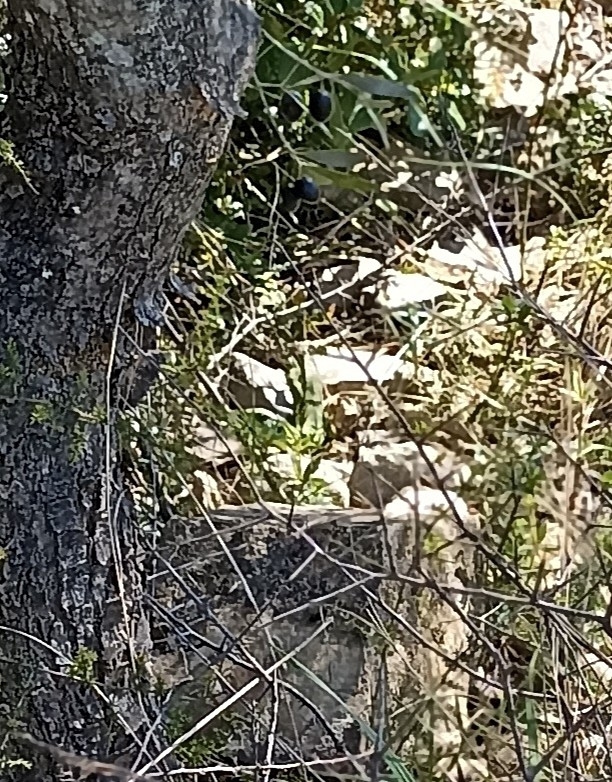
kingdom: Animalia
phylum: Chordata
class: Squamata
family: Lacertidae
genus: Lacerta
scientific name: Lacerta bilineata
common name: Western green lizard
